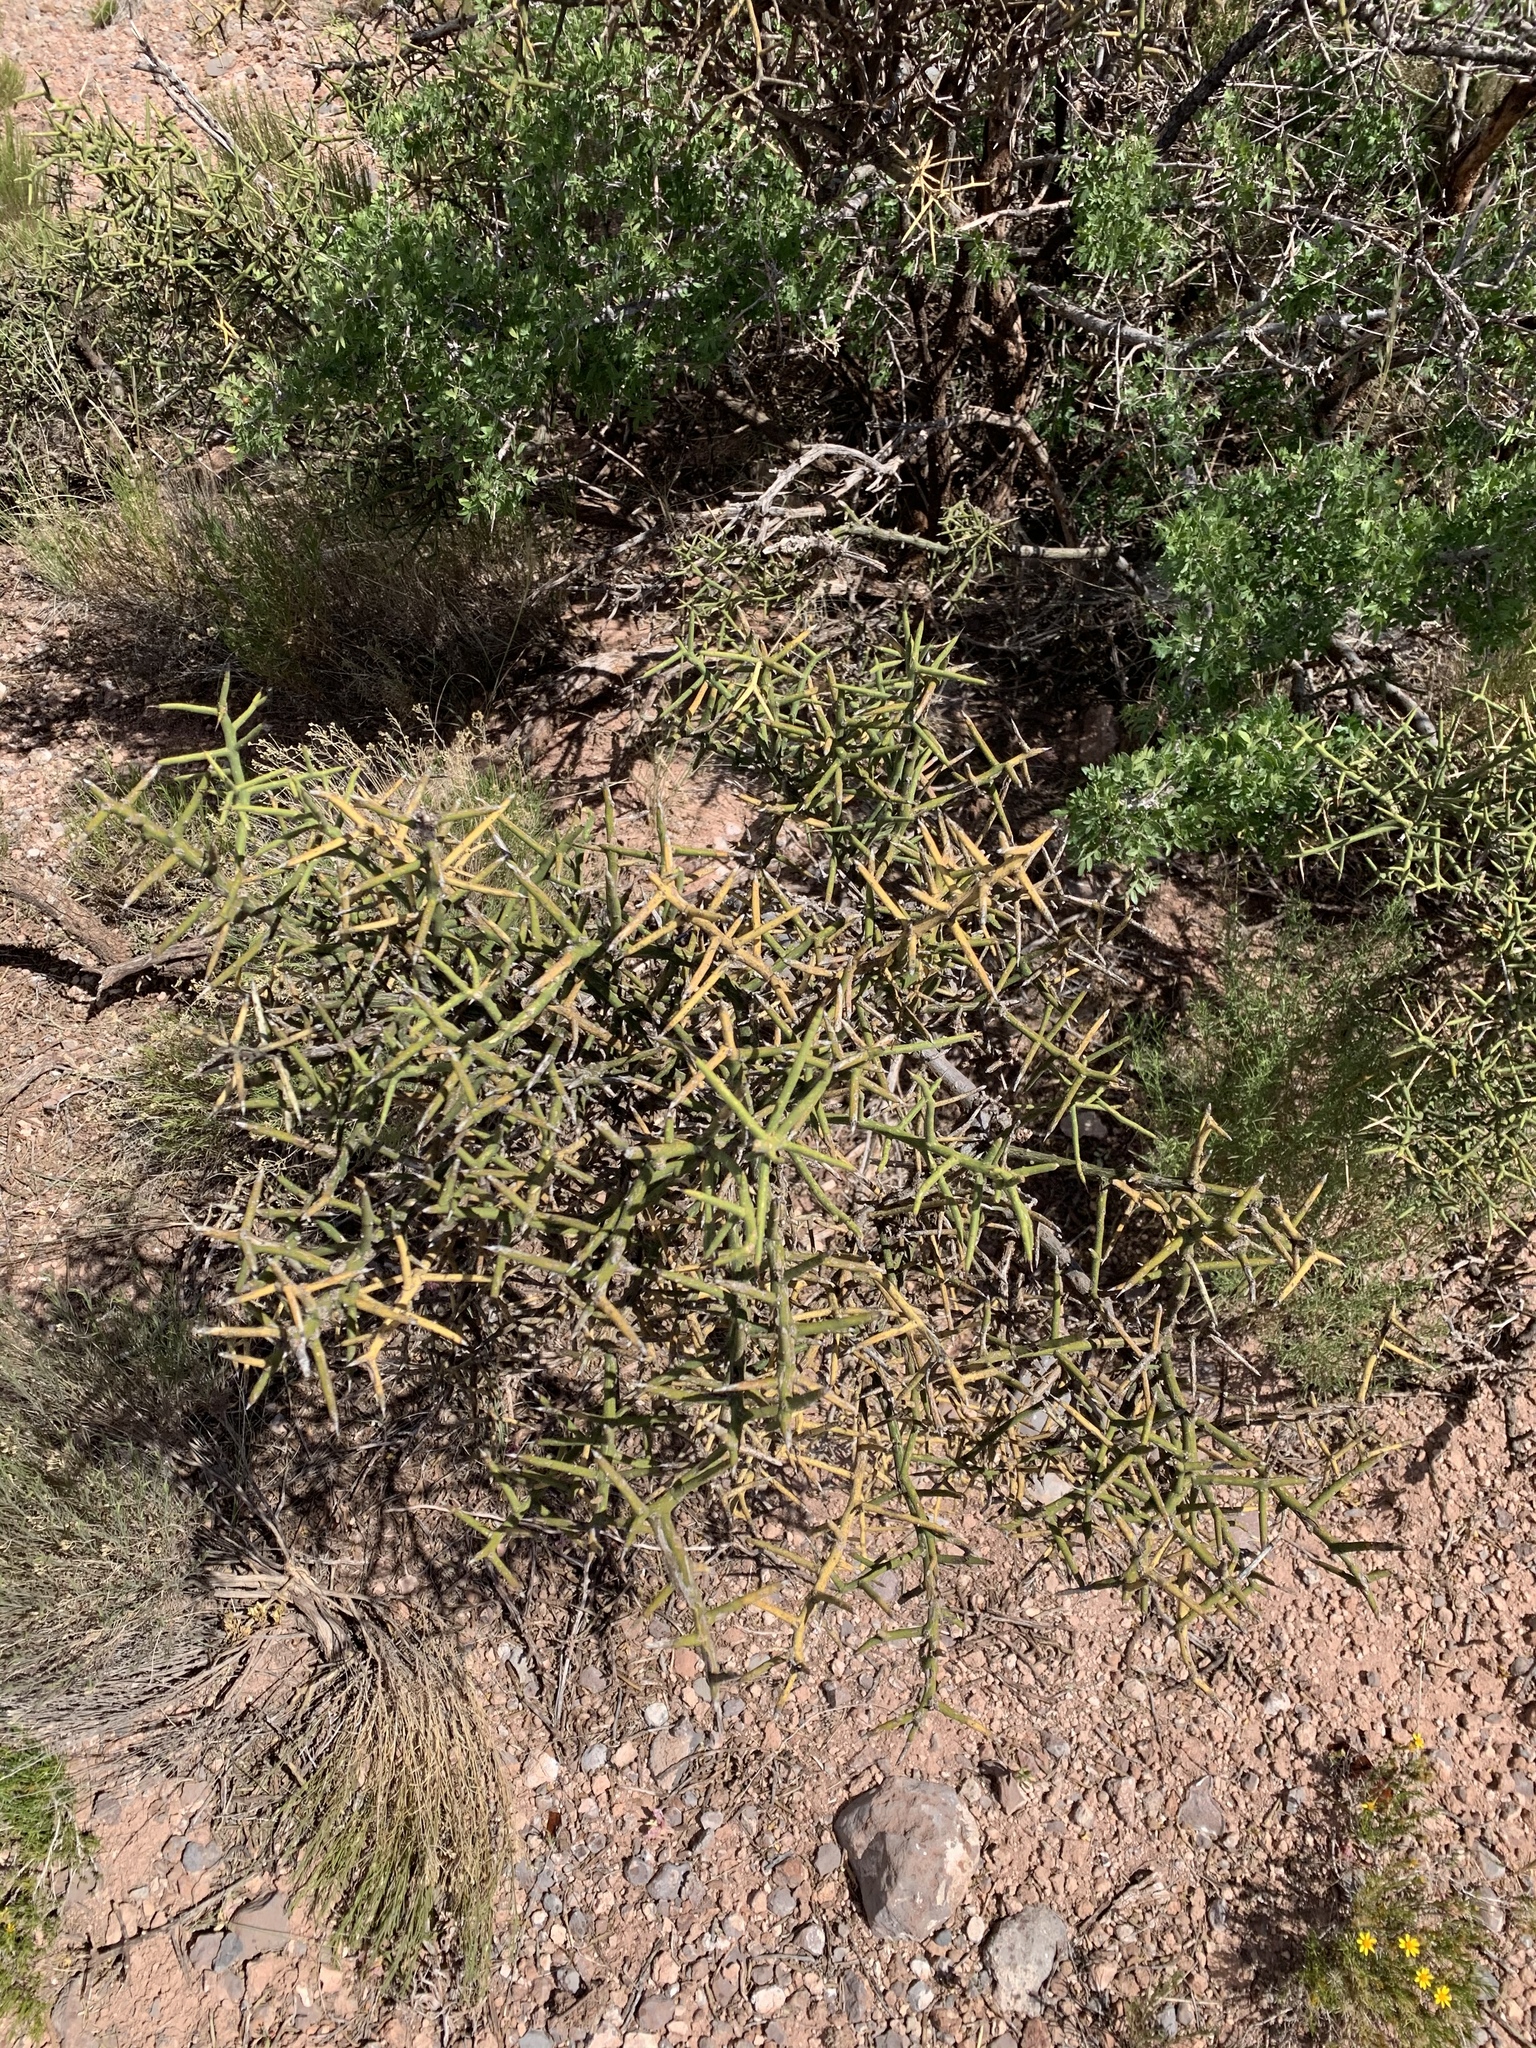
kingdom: Plantae
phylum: Tracheophyta
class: Magnoliopsida
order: Brassicales
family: Koeberliniaceae
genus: Koeberlinia
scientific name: Koeberlinia spinosa
